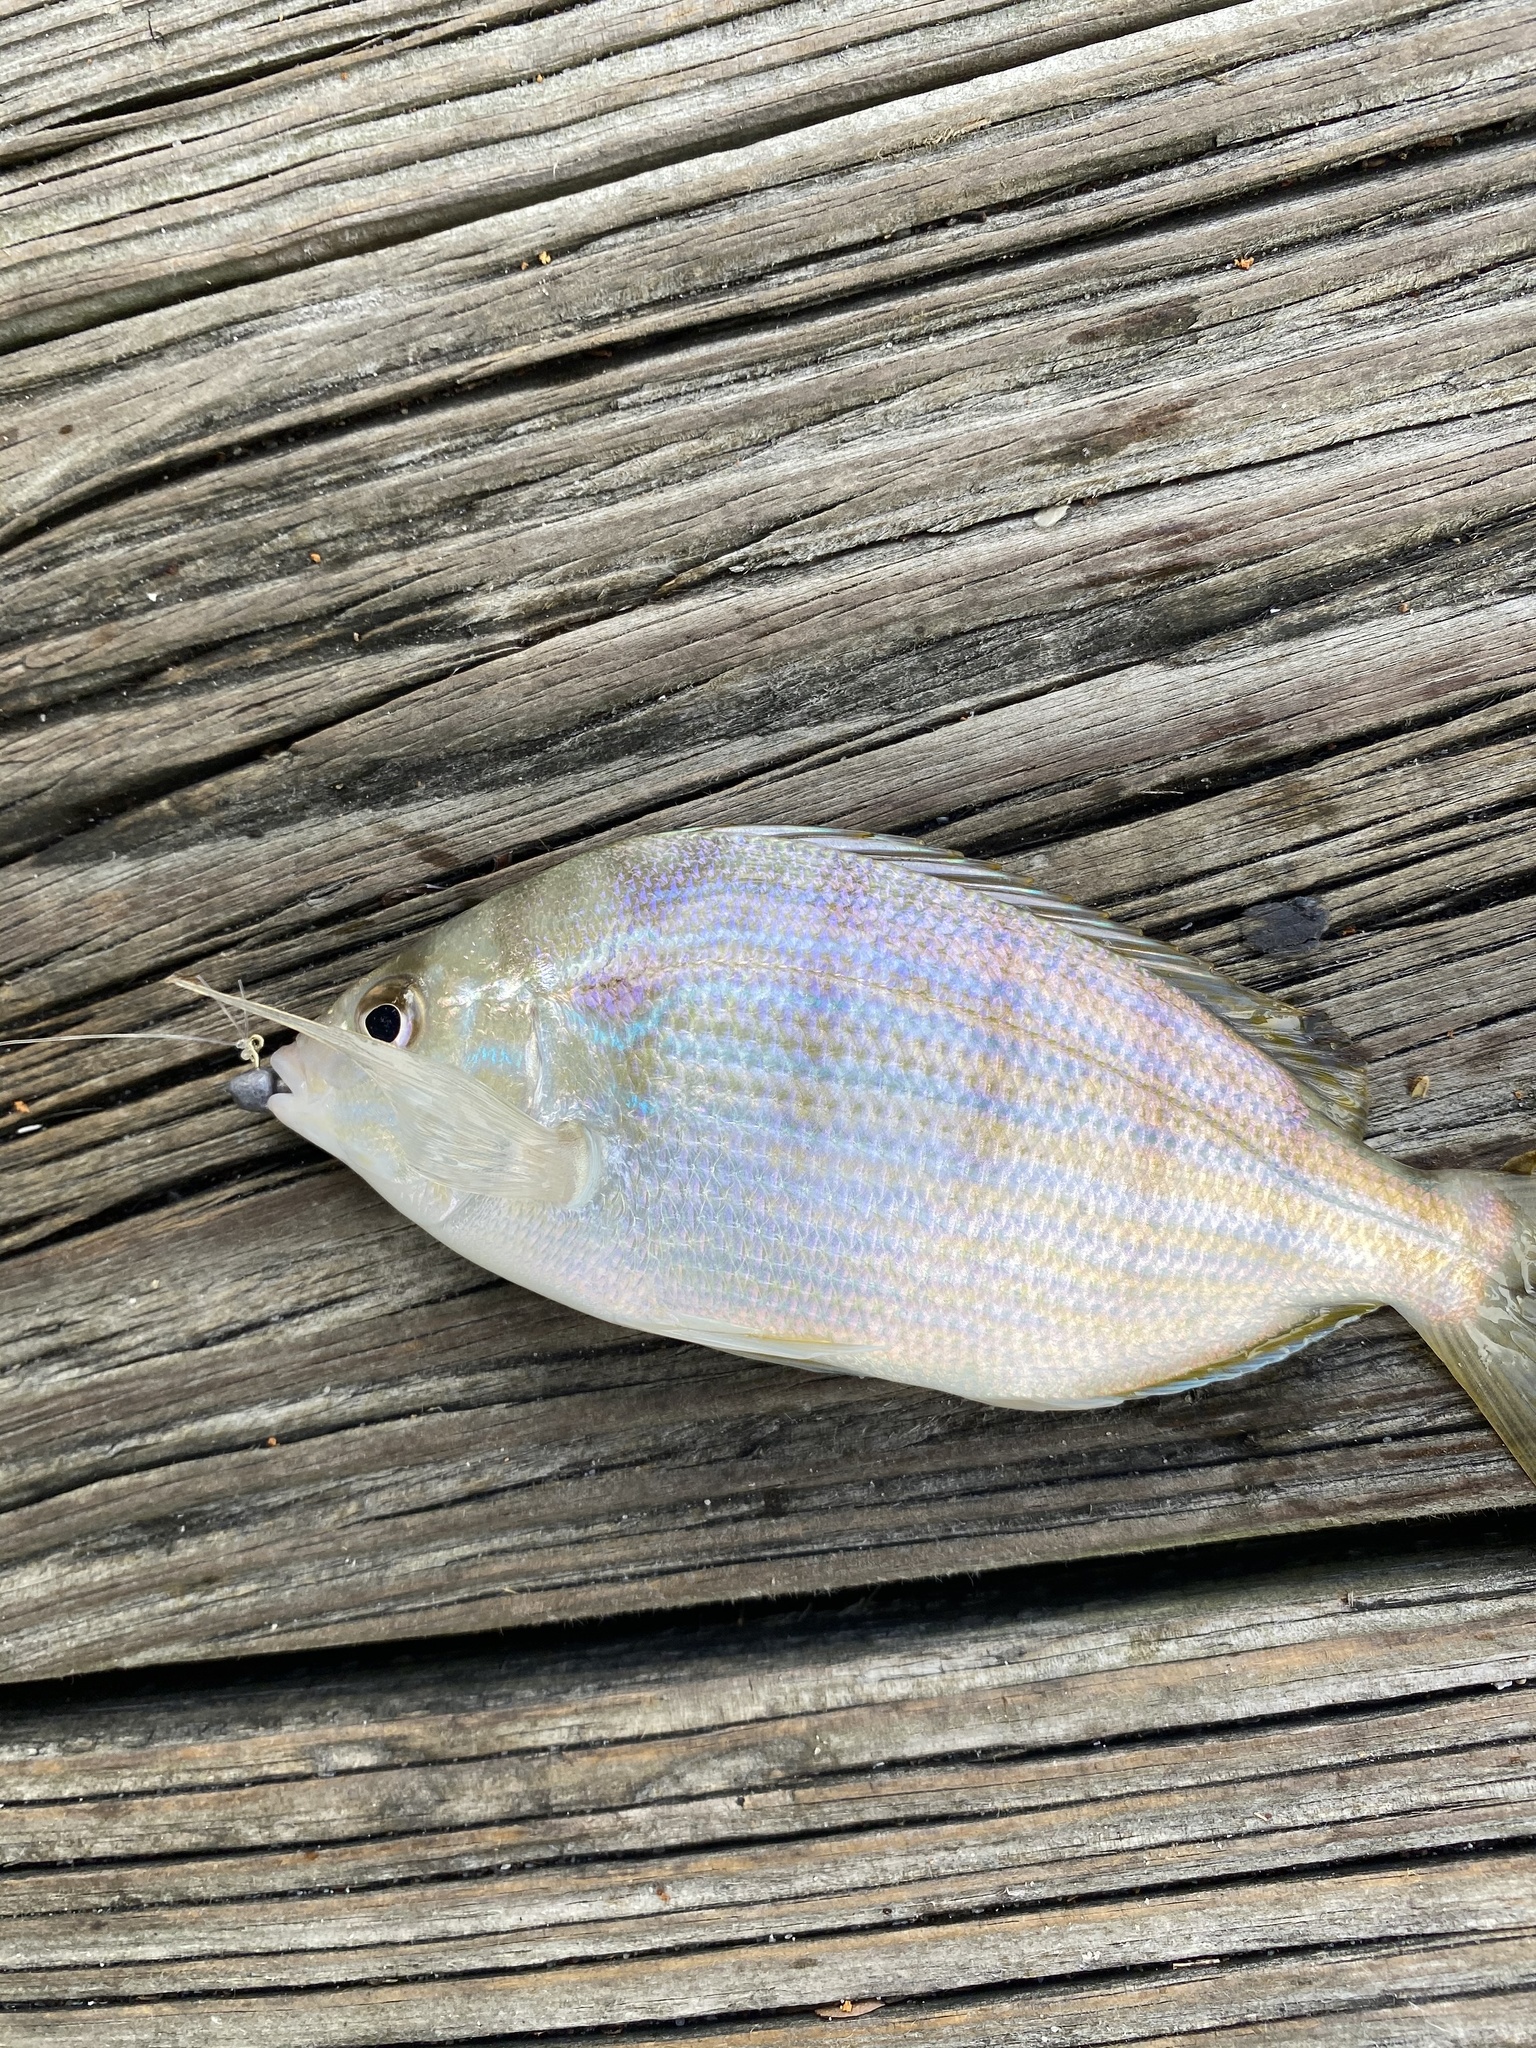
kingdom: Animalia
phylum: Chordata
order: Perciformes
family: Sparidae
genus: Lagodon
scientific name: Lagodon rhomboides
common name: Pinfish
